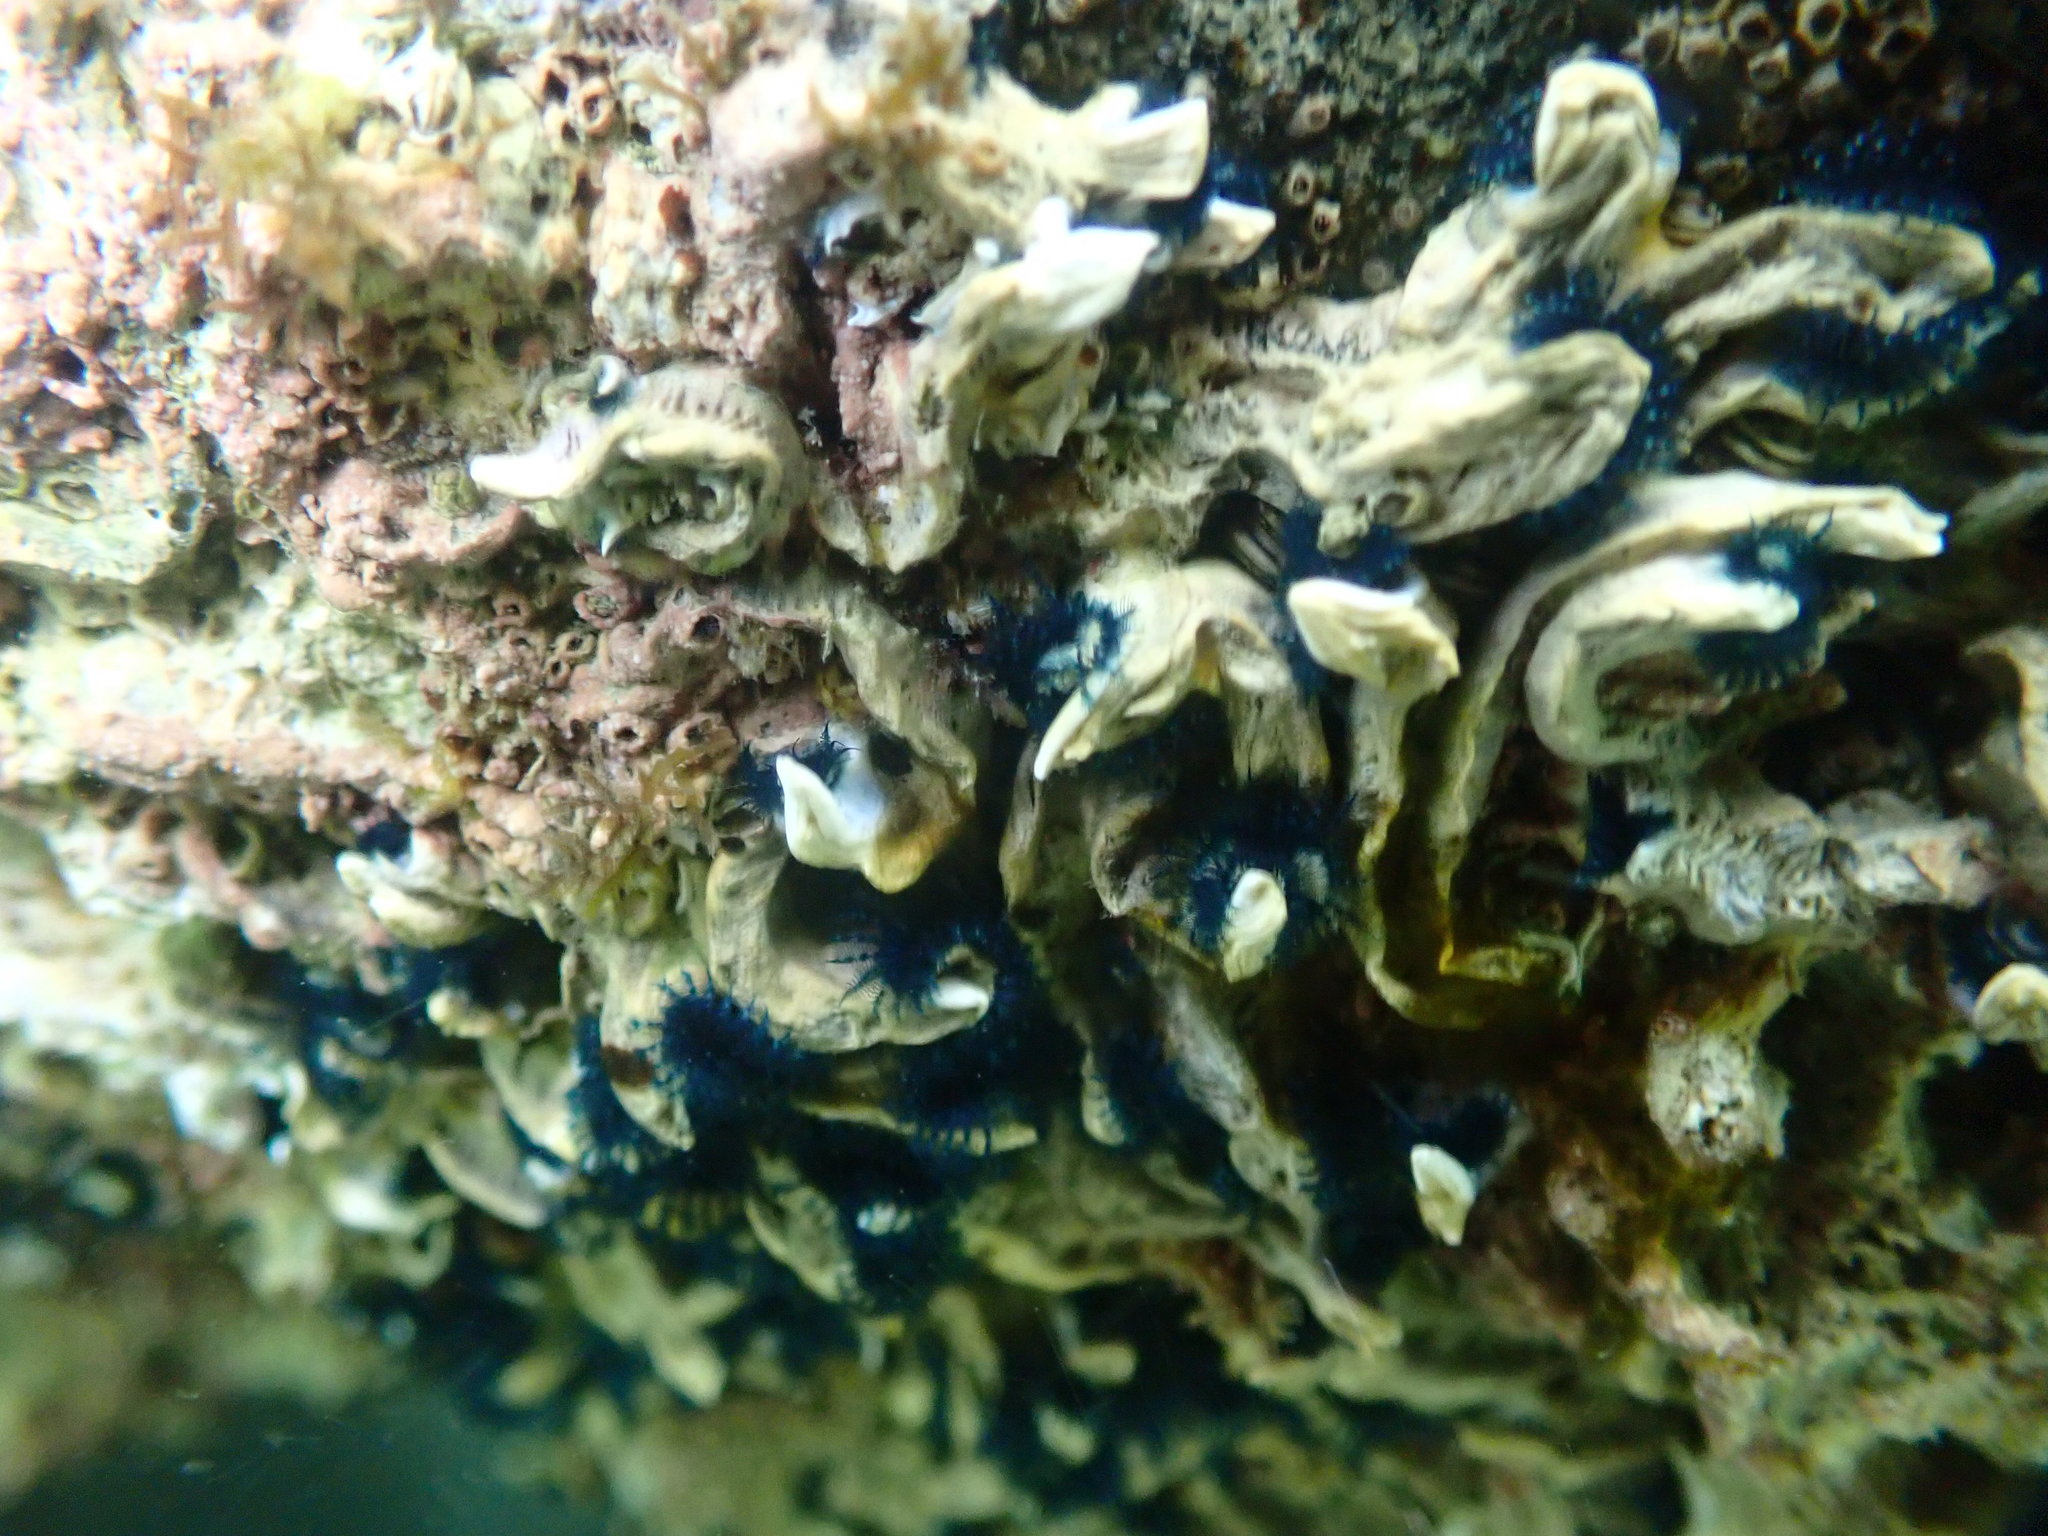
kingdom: Animalia
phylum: Annelida
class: Polychaeta
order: Sabellida
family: Serpulidae
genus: Spirobranchus
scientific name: Spirobranchus cariniferus
